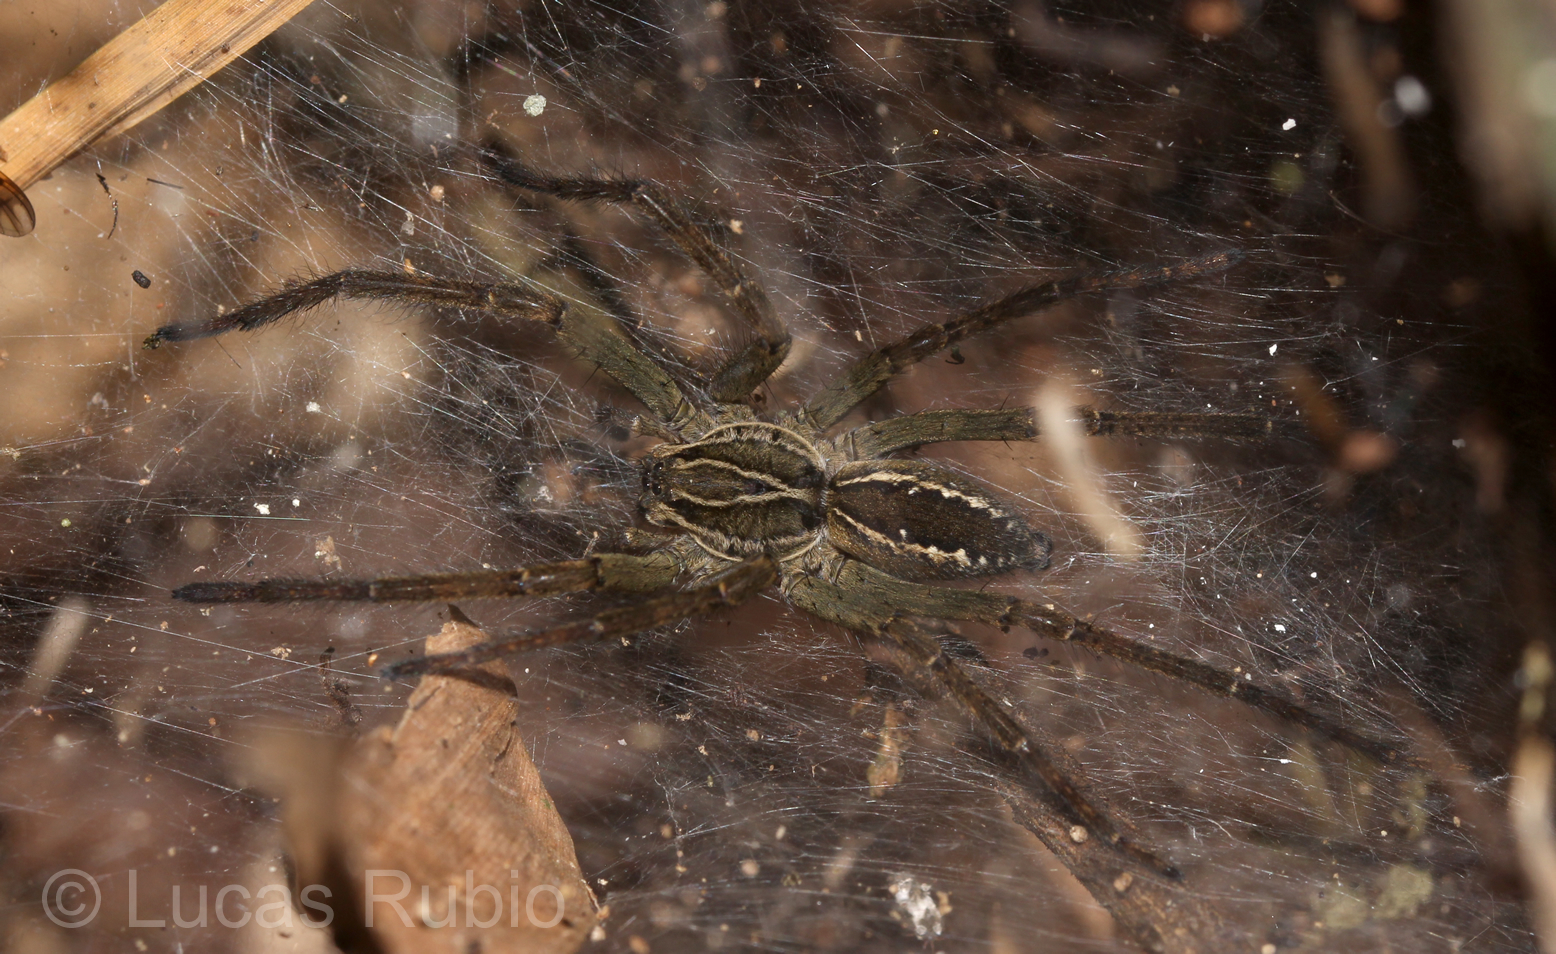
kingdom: Animalia
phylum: Arthropoda
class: Arachnida
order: Araneae
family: Lycosidae
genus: Aglaoctenus
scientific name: Aglaoctenus lagotis
